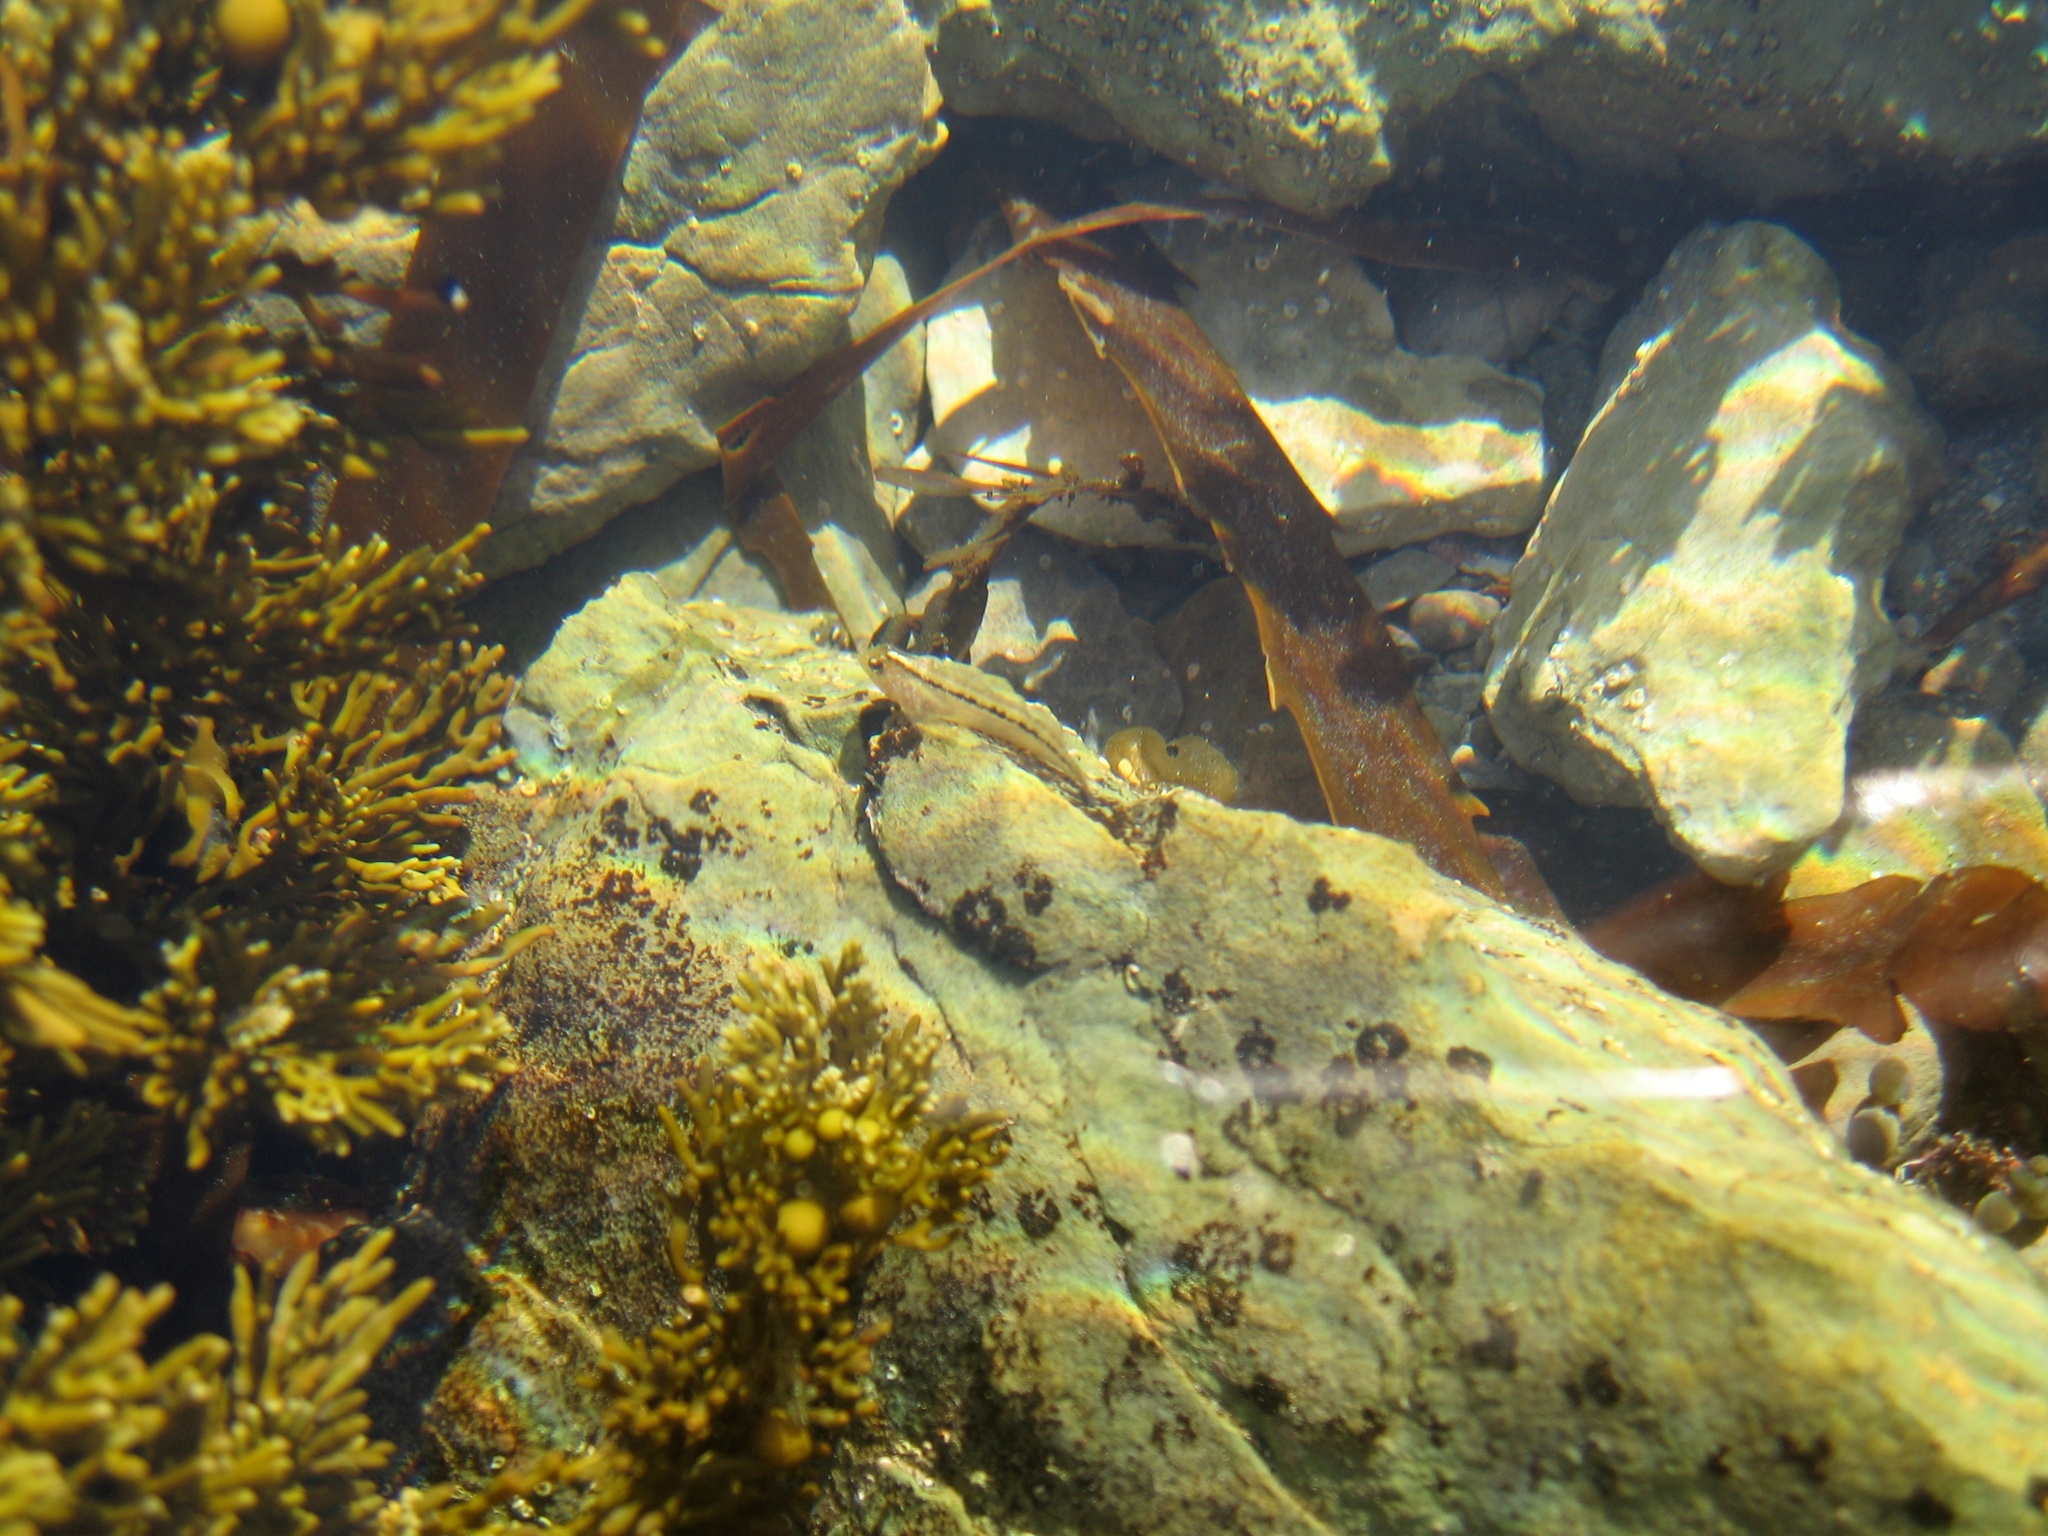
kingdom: Animalia
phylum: Chordata
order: Perciformes
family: Tripterygiidae
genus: Forsterygion
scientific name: Forsterygion lapillum
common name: Common triplefin
